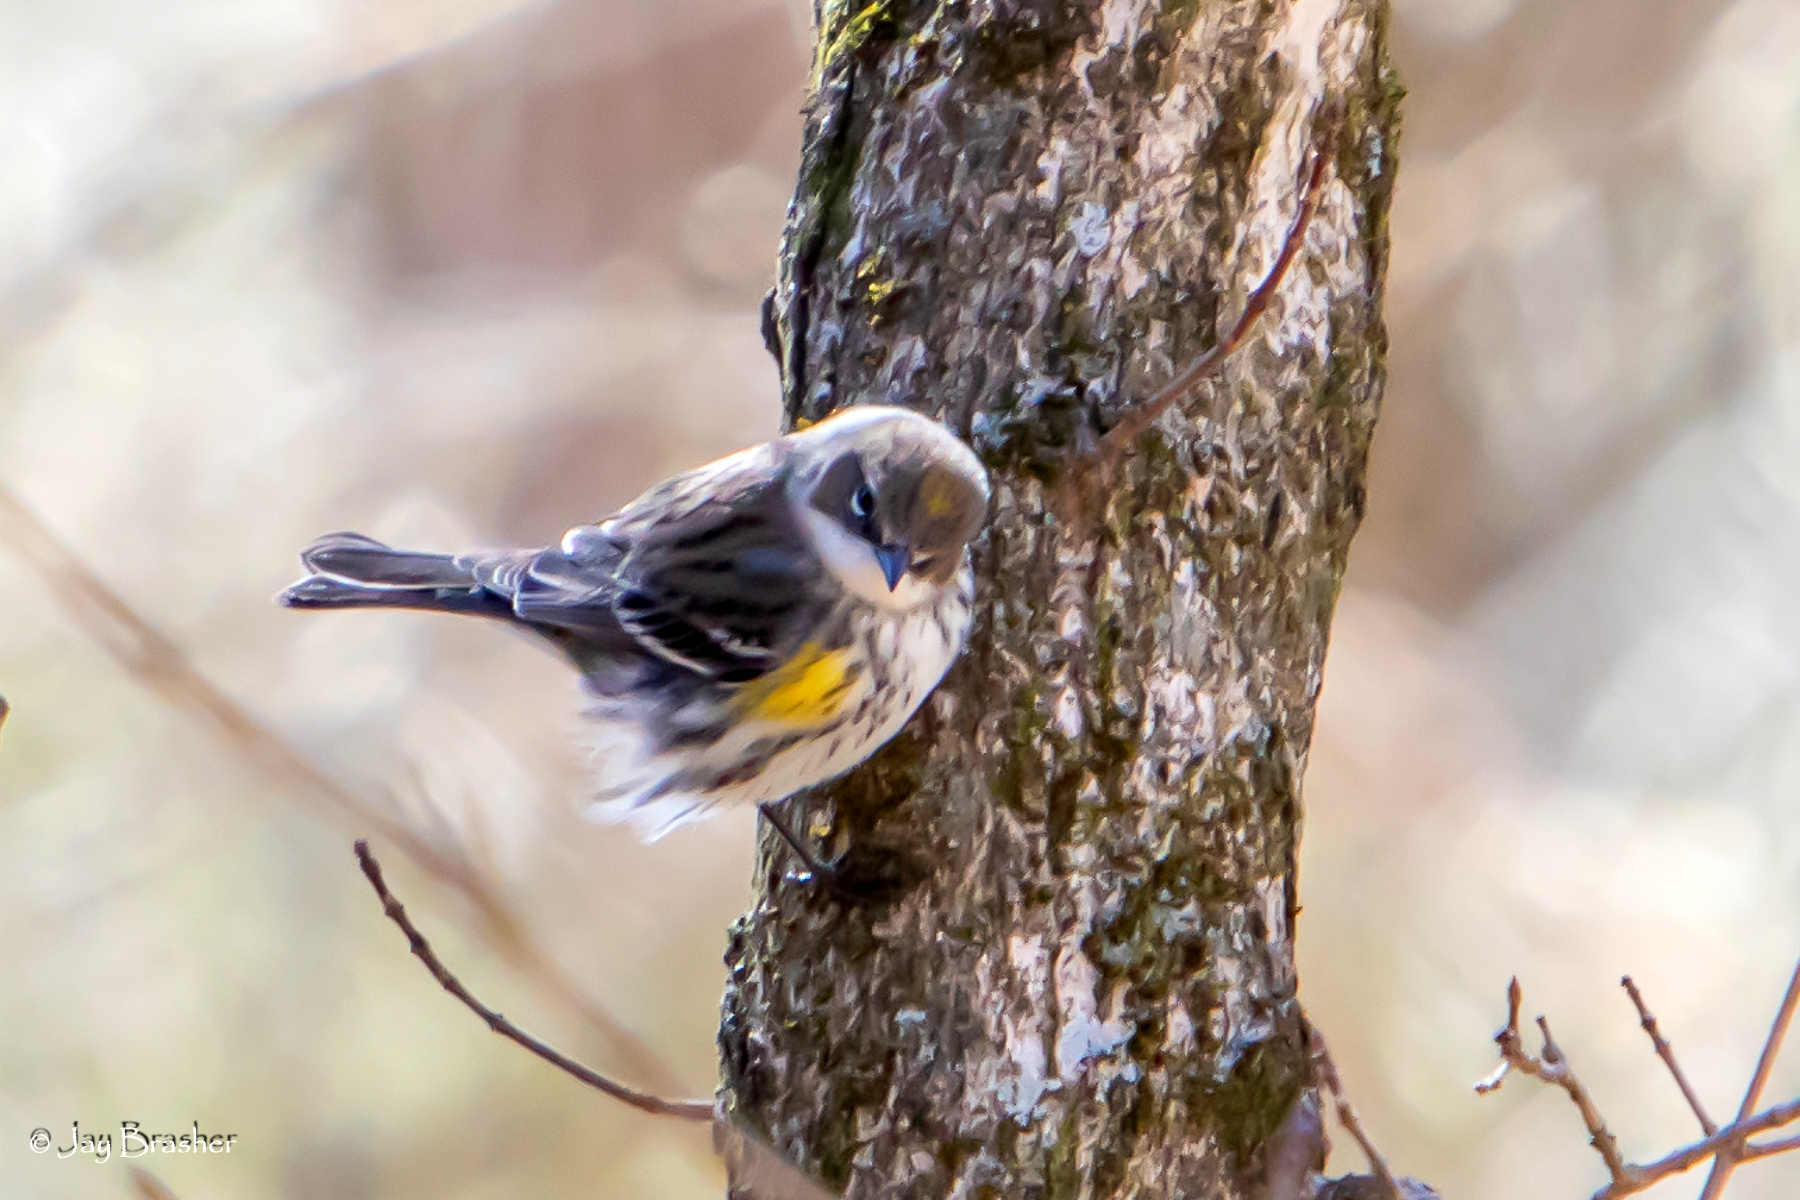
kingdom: Animalia
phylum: Chordata
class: Aves
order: Passeriformes
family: Parulidae
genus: Setophaga
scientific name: Setophaga coronata
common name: Myrtle warbler
